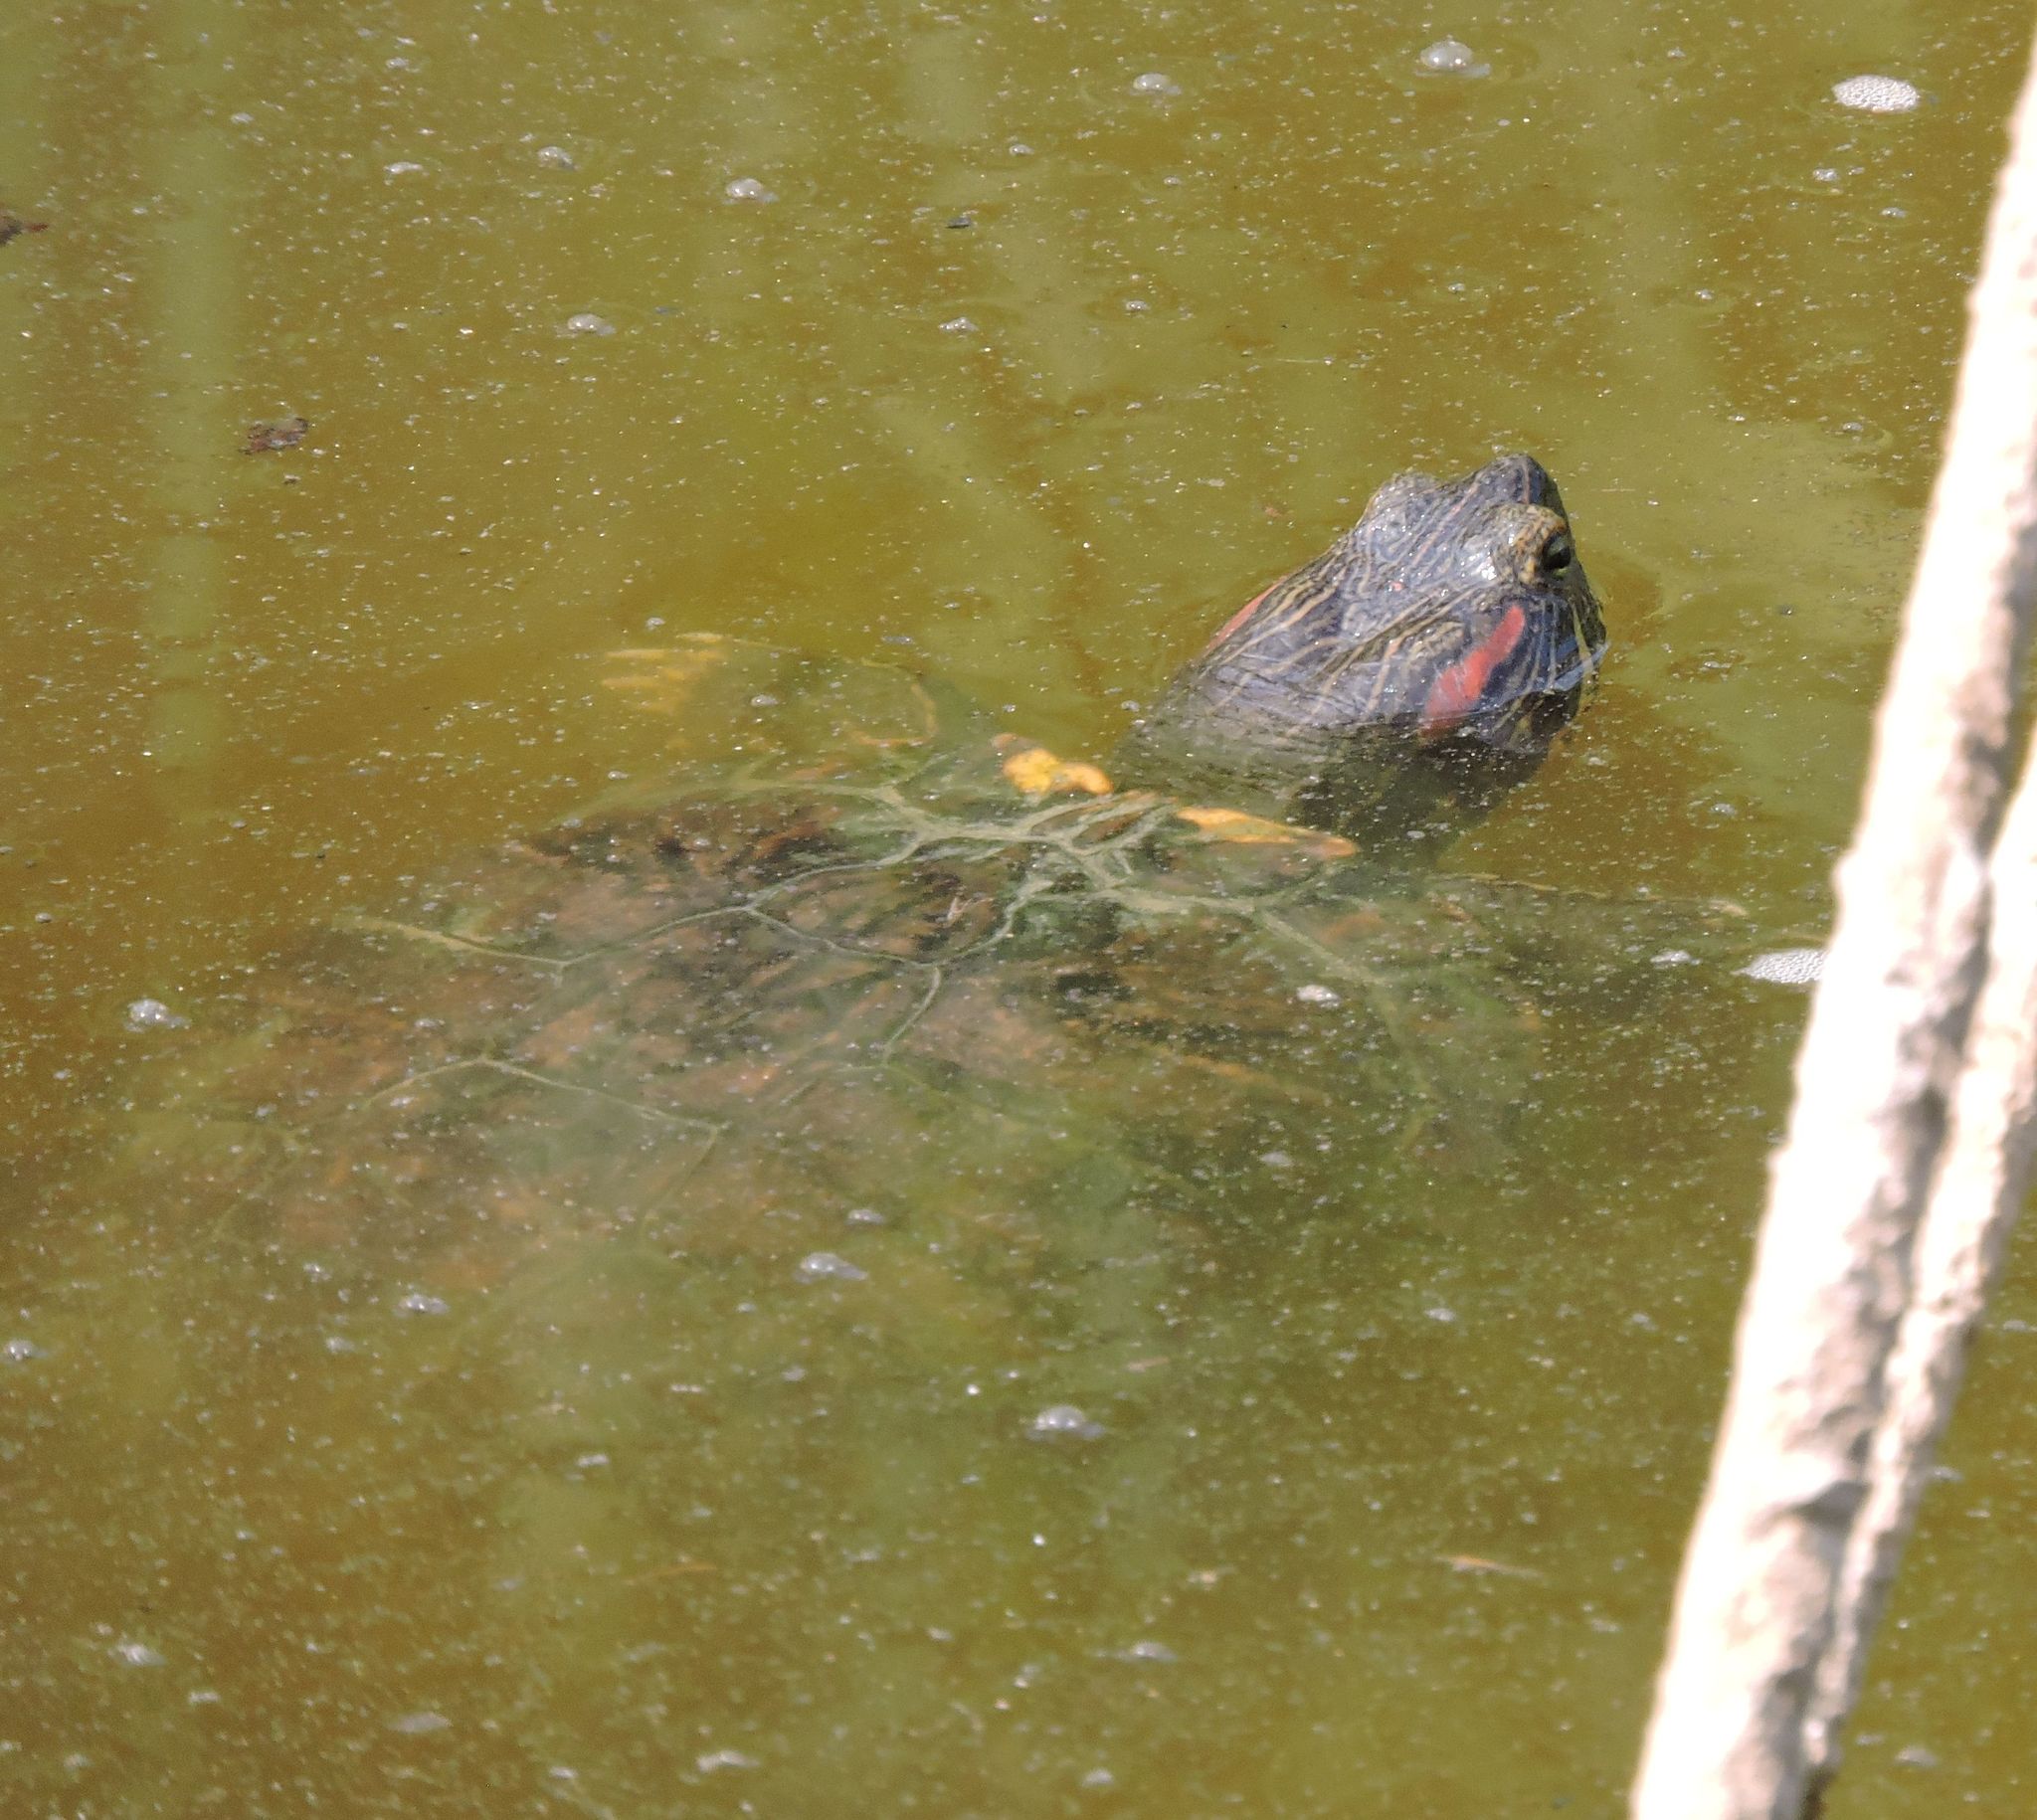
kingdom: Animalia
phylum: Chordata
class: Testudines
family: Emydidae
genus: Trachemys
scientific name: Trachemys scripta
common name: Slider
